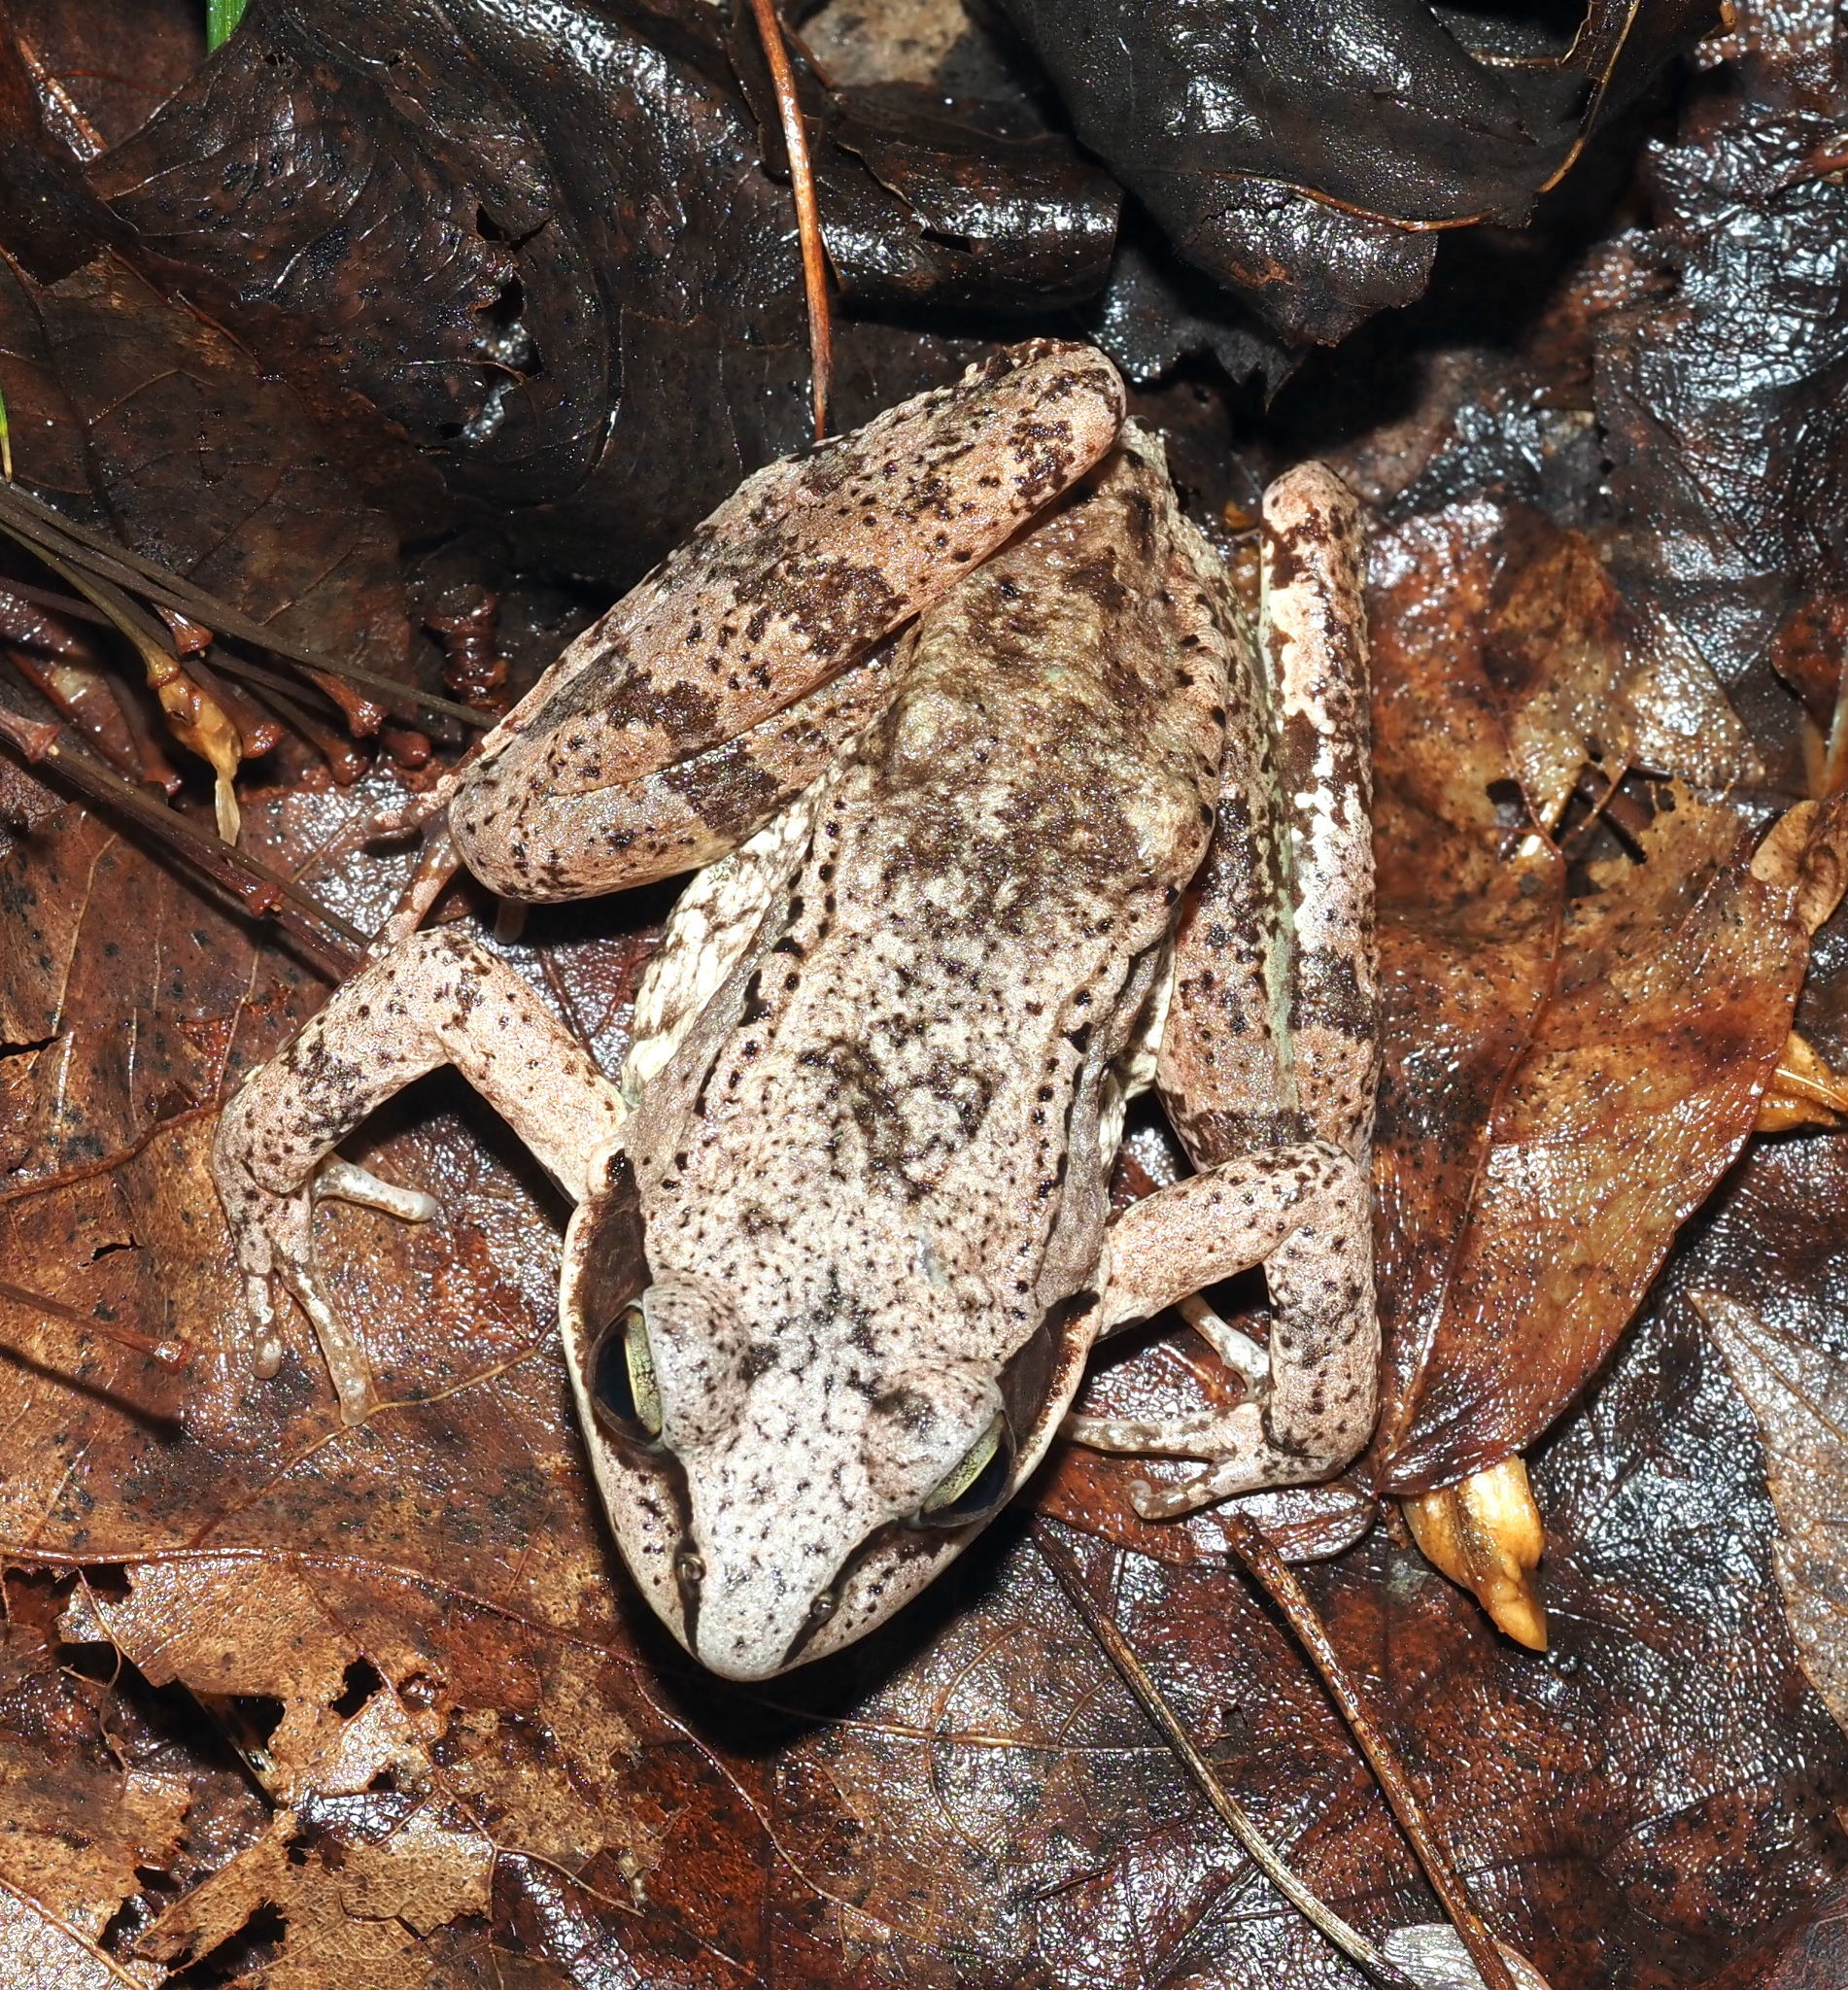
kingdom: Animalia
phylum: Chordata
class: Amphibia
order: Anura
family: Ranidae
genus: Lithobates
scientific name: Lithobates sylvaticus
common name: Wood frog
